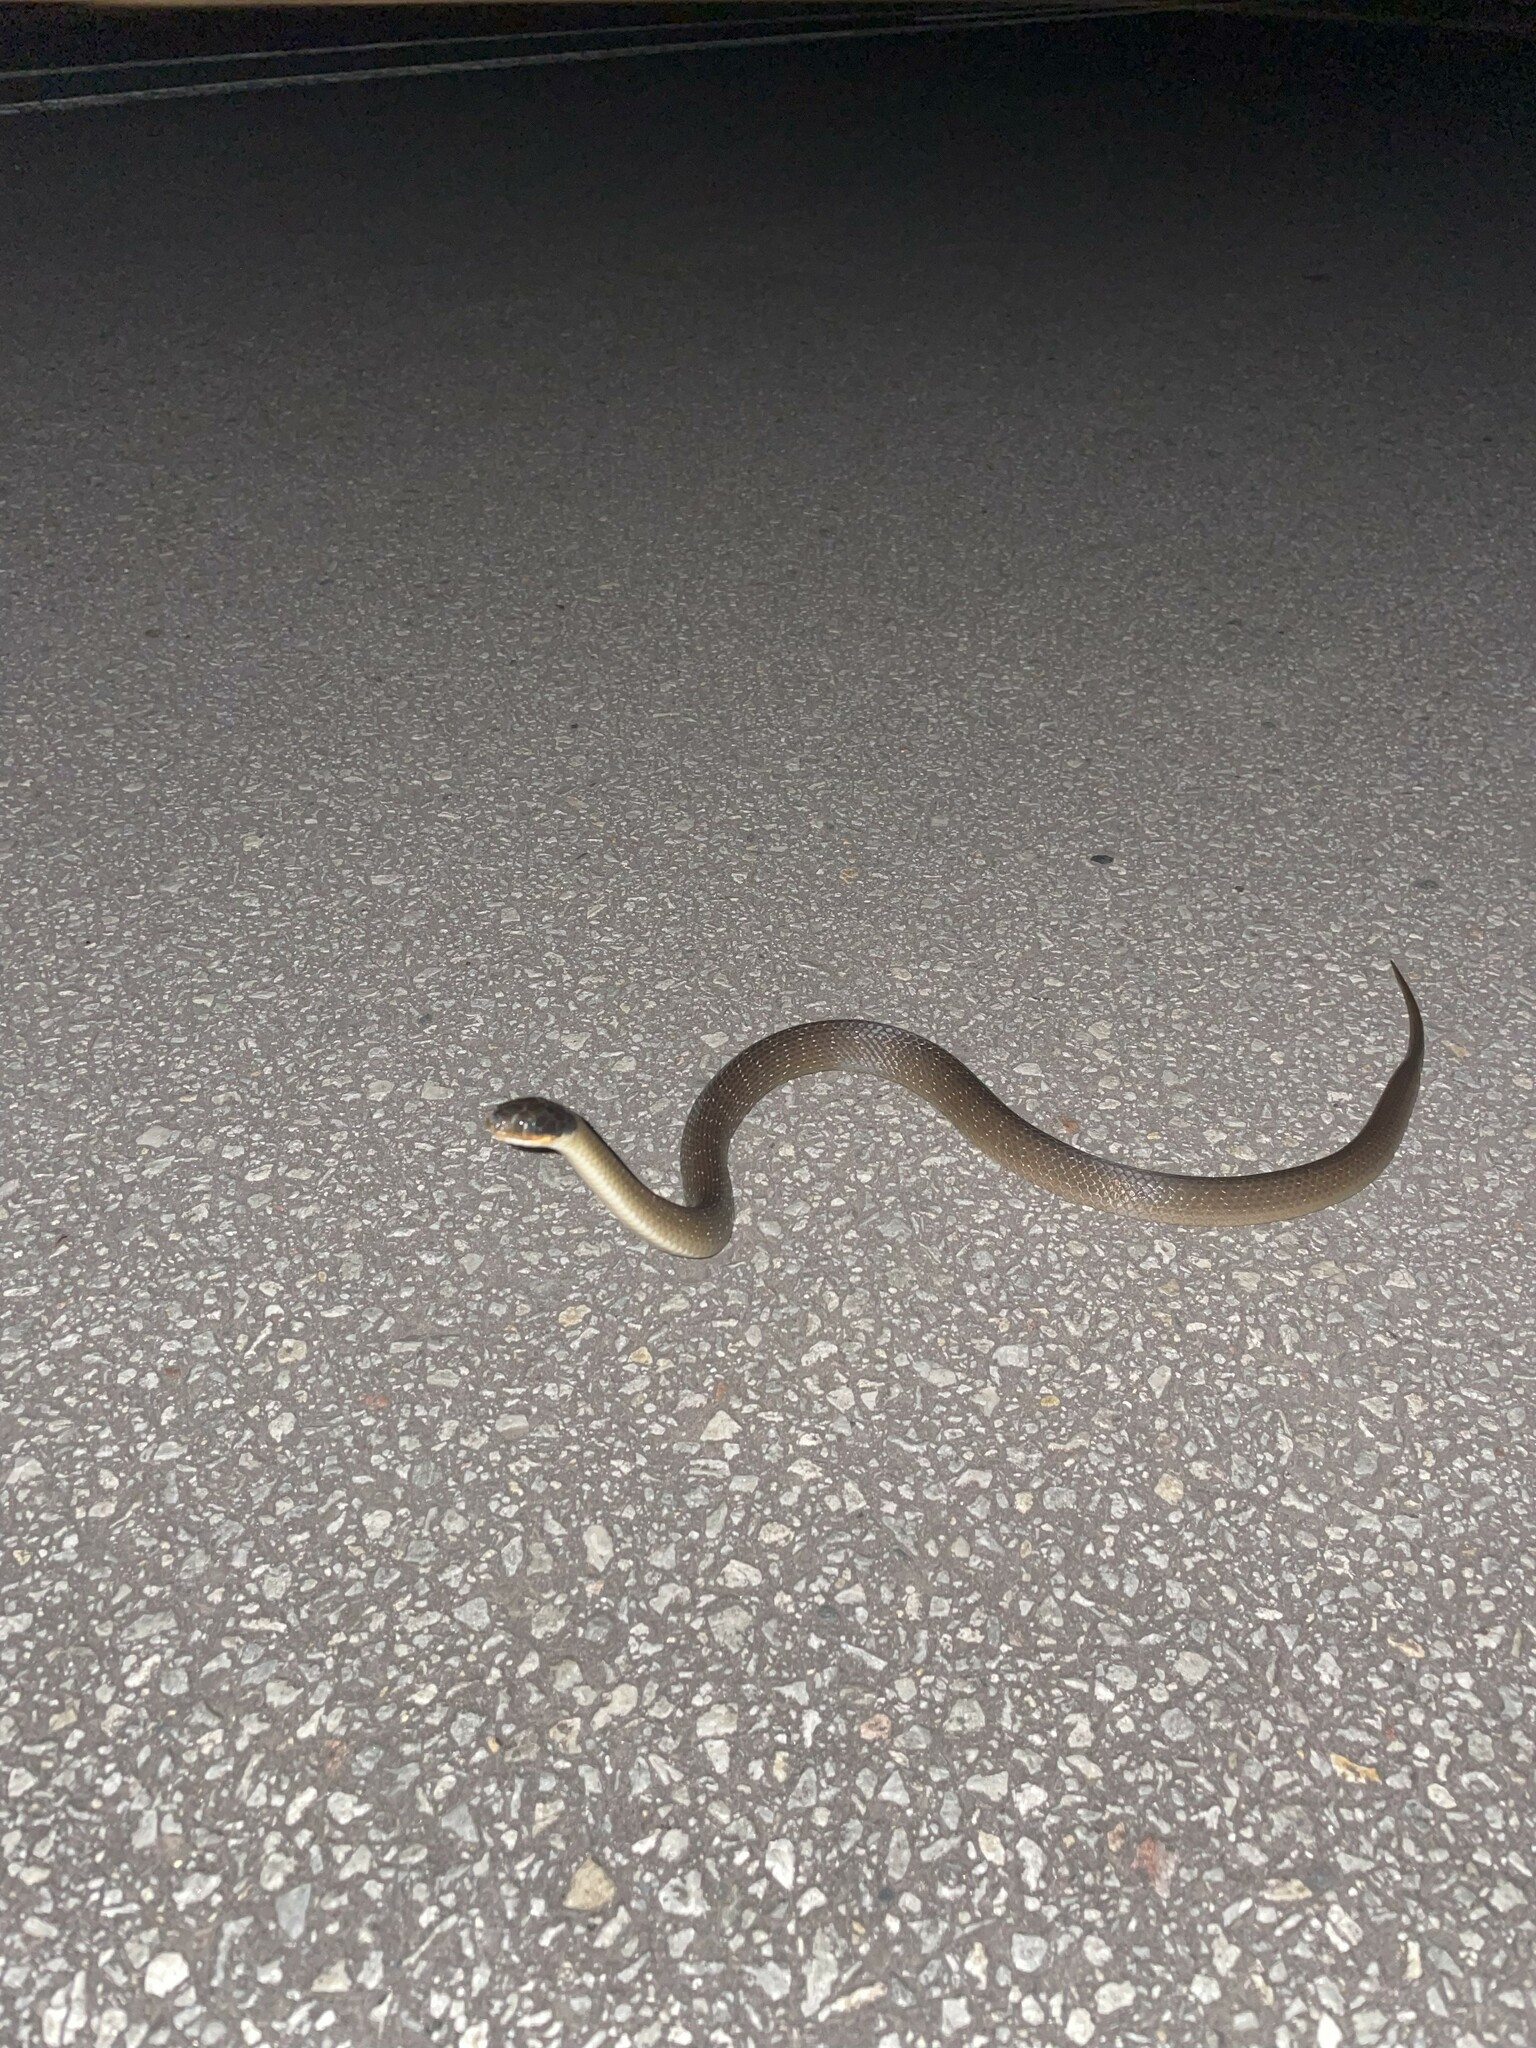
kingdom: Animalia
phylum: Chordata
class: Squamata
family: Colubridae
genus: Crotaphopeltis
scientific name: Crotaphopeltis hotamboeia
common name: Red-lipped snake
